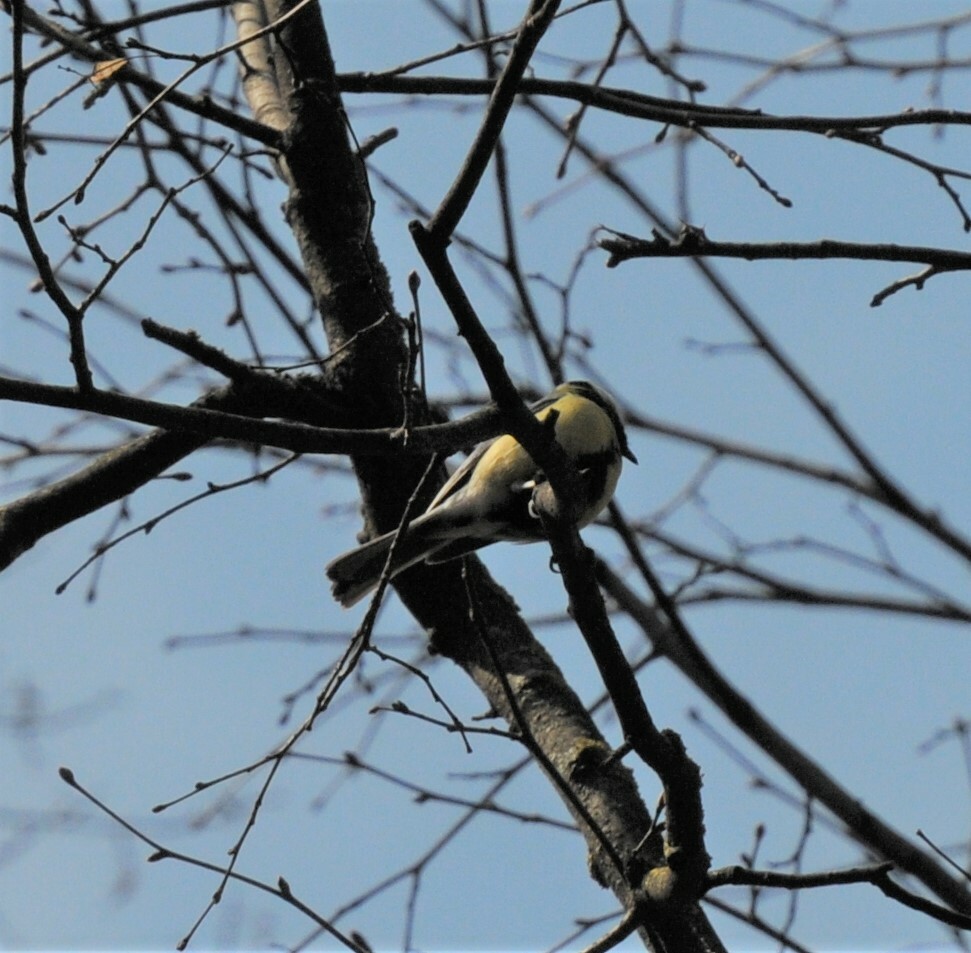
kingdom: Animalia
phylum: Chordata
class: Aves
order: Passeriformes
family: Paridae
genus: Parus
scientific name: Parus major
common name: Great tit
